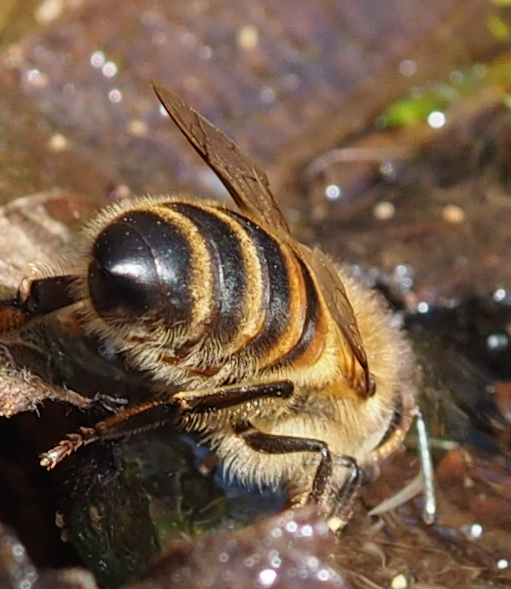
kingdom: Animalia
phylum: Arthropoda
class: Insecta
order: Hymenoptera
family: Apidae
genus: Apis
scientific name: Apis mellifera
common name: Honey bee
